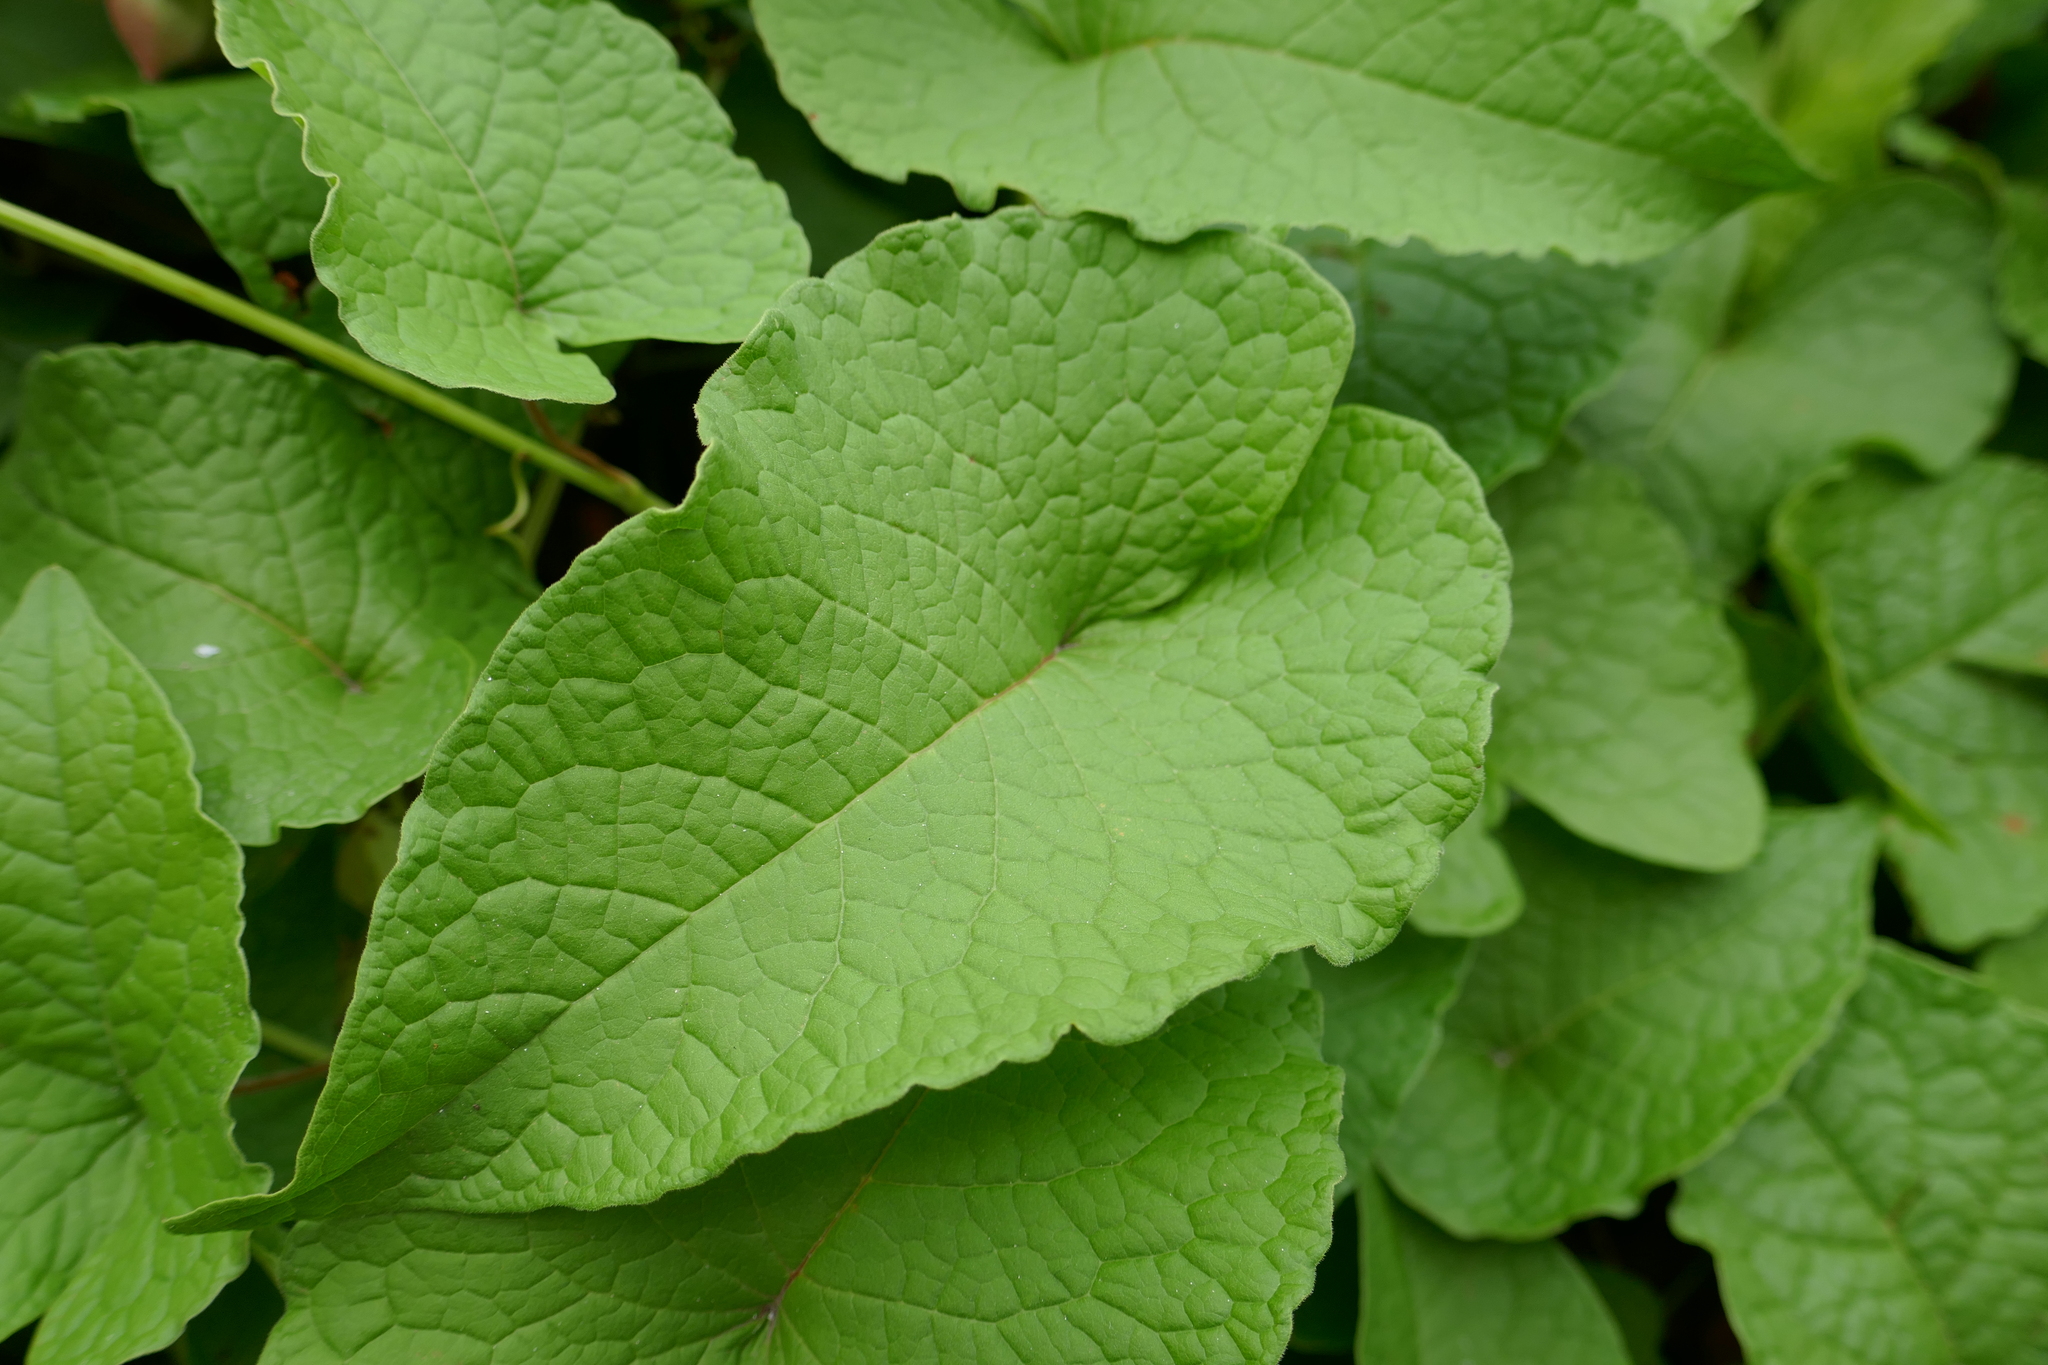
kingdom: Plantae
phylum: Tracheophyta
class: Magnoliopsida
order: Caryophyllales
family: Polygonaceae
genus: Antigonon
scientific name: Antigonon leptopus
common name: Coral vine
